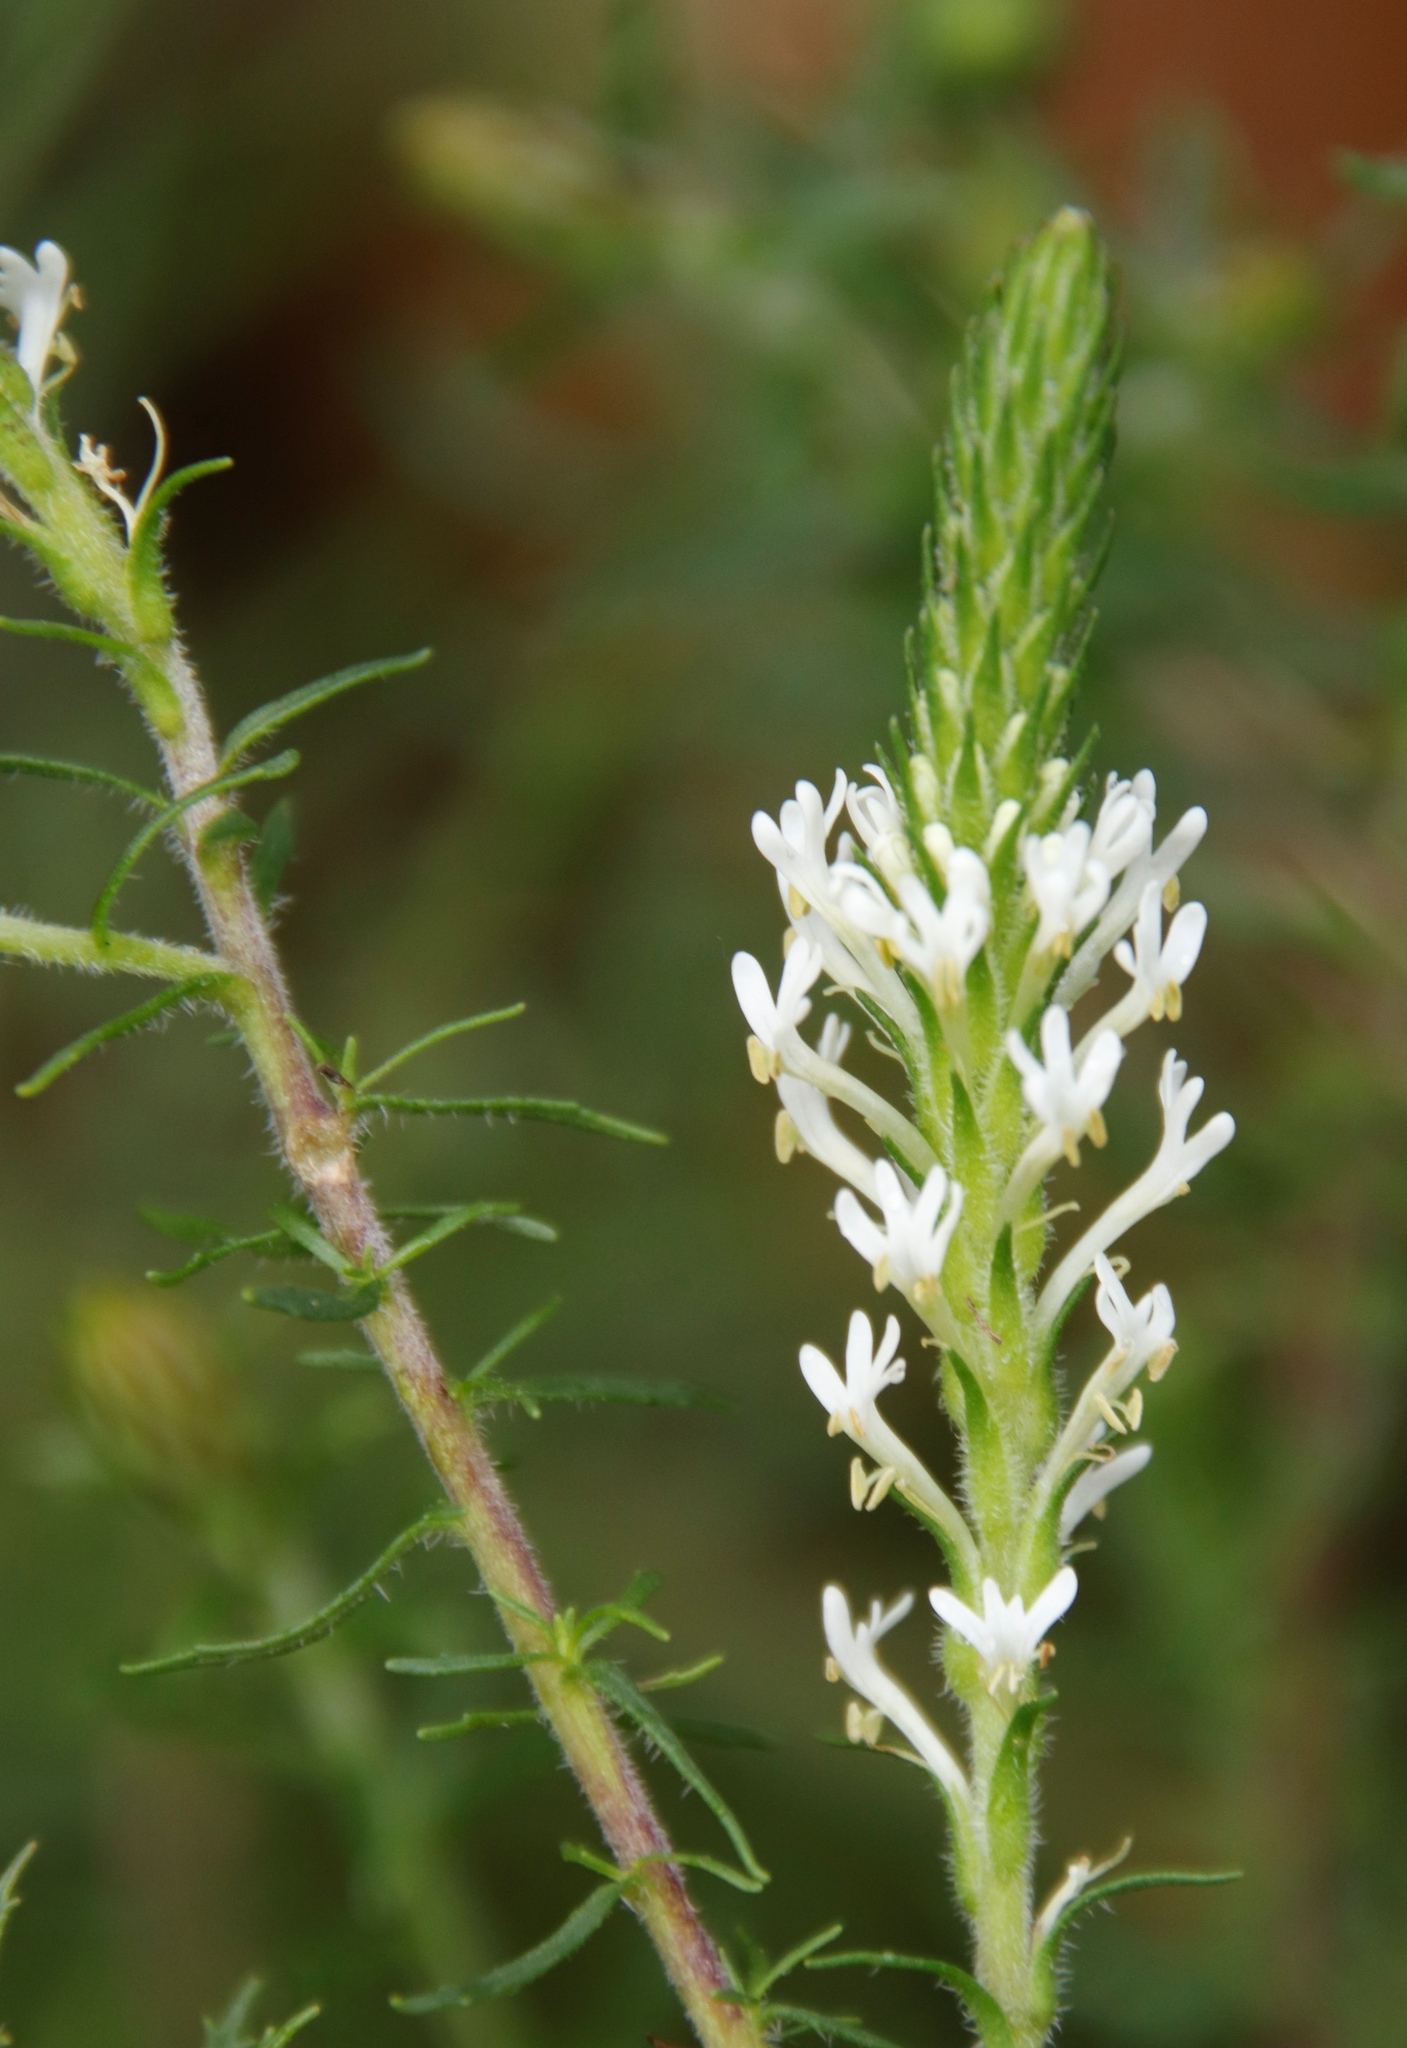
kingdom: Plantae
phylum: Tracheophyta
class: Magnoliopsida
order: Lamiales
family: Scrophulariaceae
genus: Dischisma
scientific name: Dischisma ciliatum
